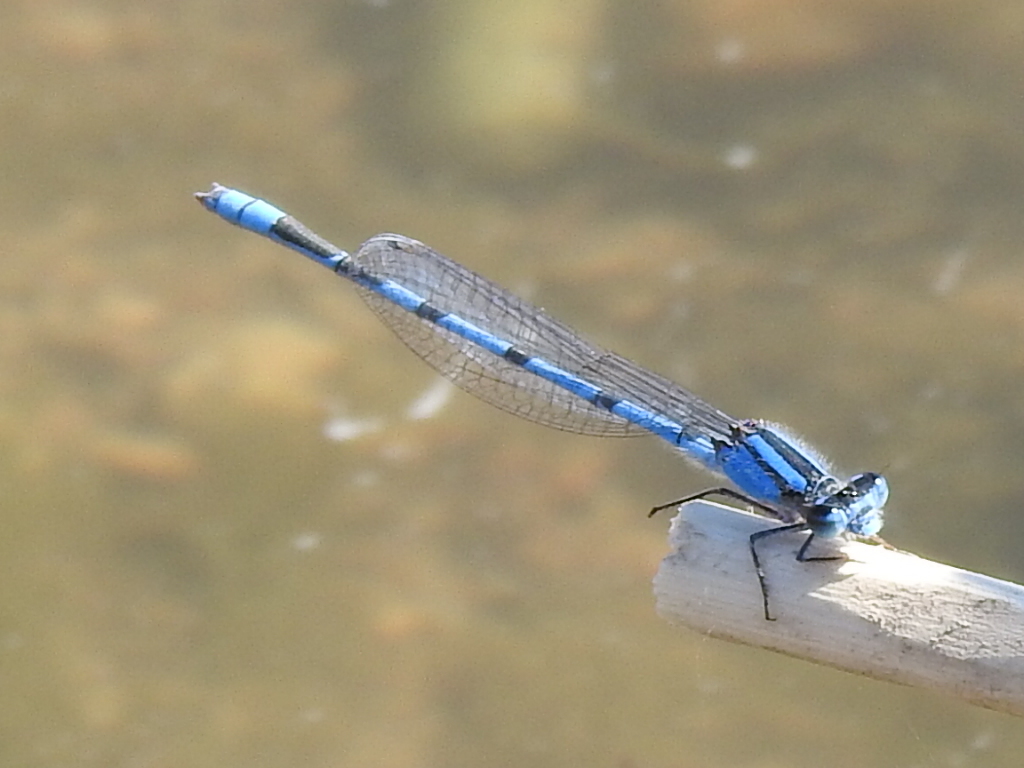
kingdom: Animalia
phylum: Arthropoda
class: Insecta
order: Odonata
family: Coenagrionidae
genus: Enallagma
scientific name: Enallagma civile
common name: Damselfly
